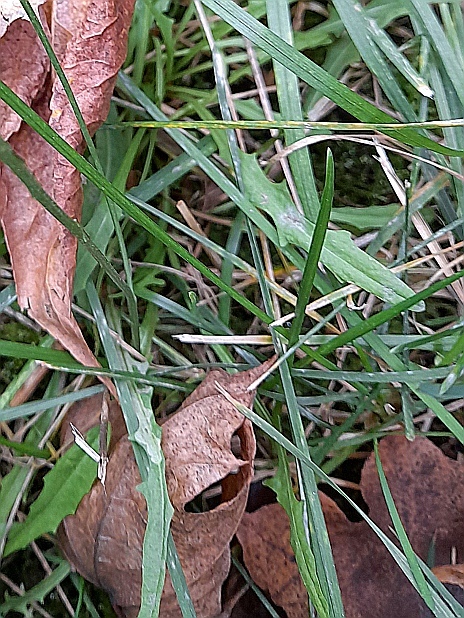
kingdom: Plantae
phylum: Tracheophyta
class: Magnoliopsida
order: Asterales
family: Asteraceae
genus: Scorzoneroides
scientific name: Scorzoneroides autumnalis
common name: Autumn hawkbit
